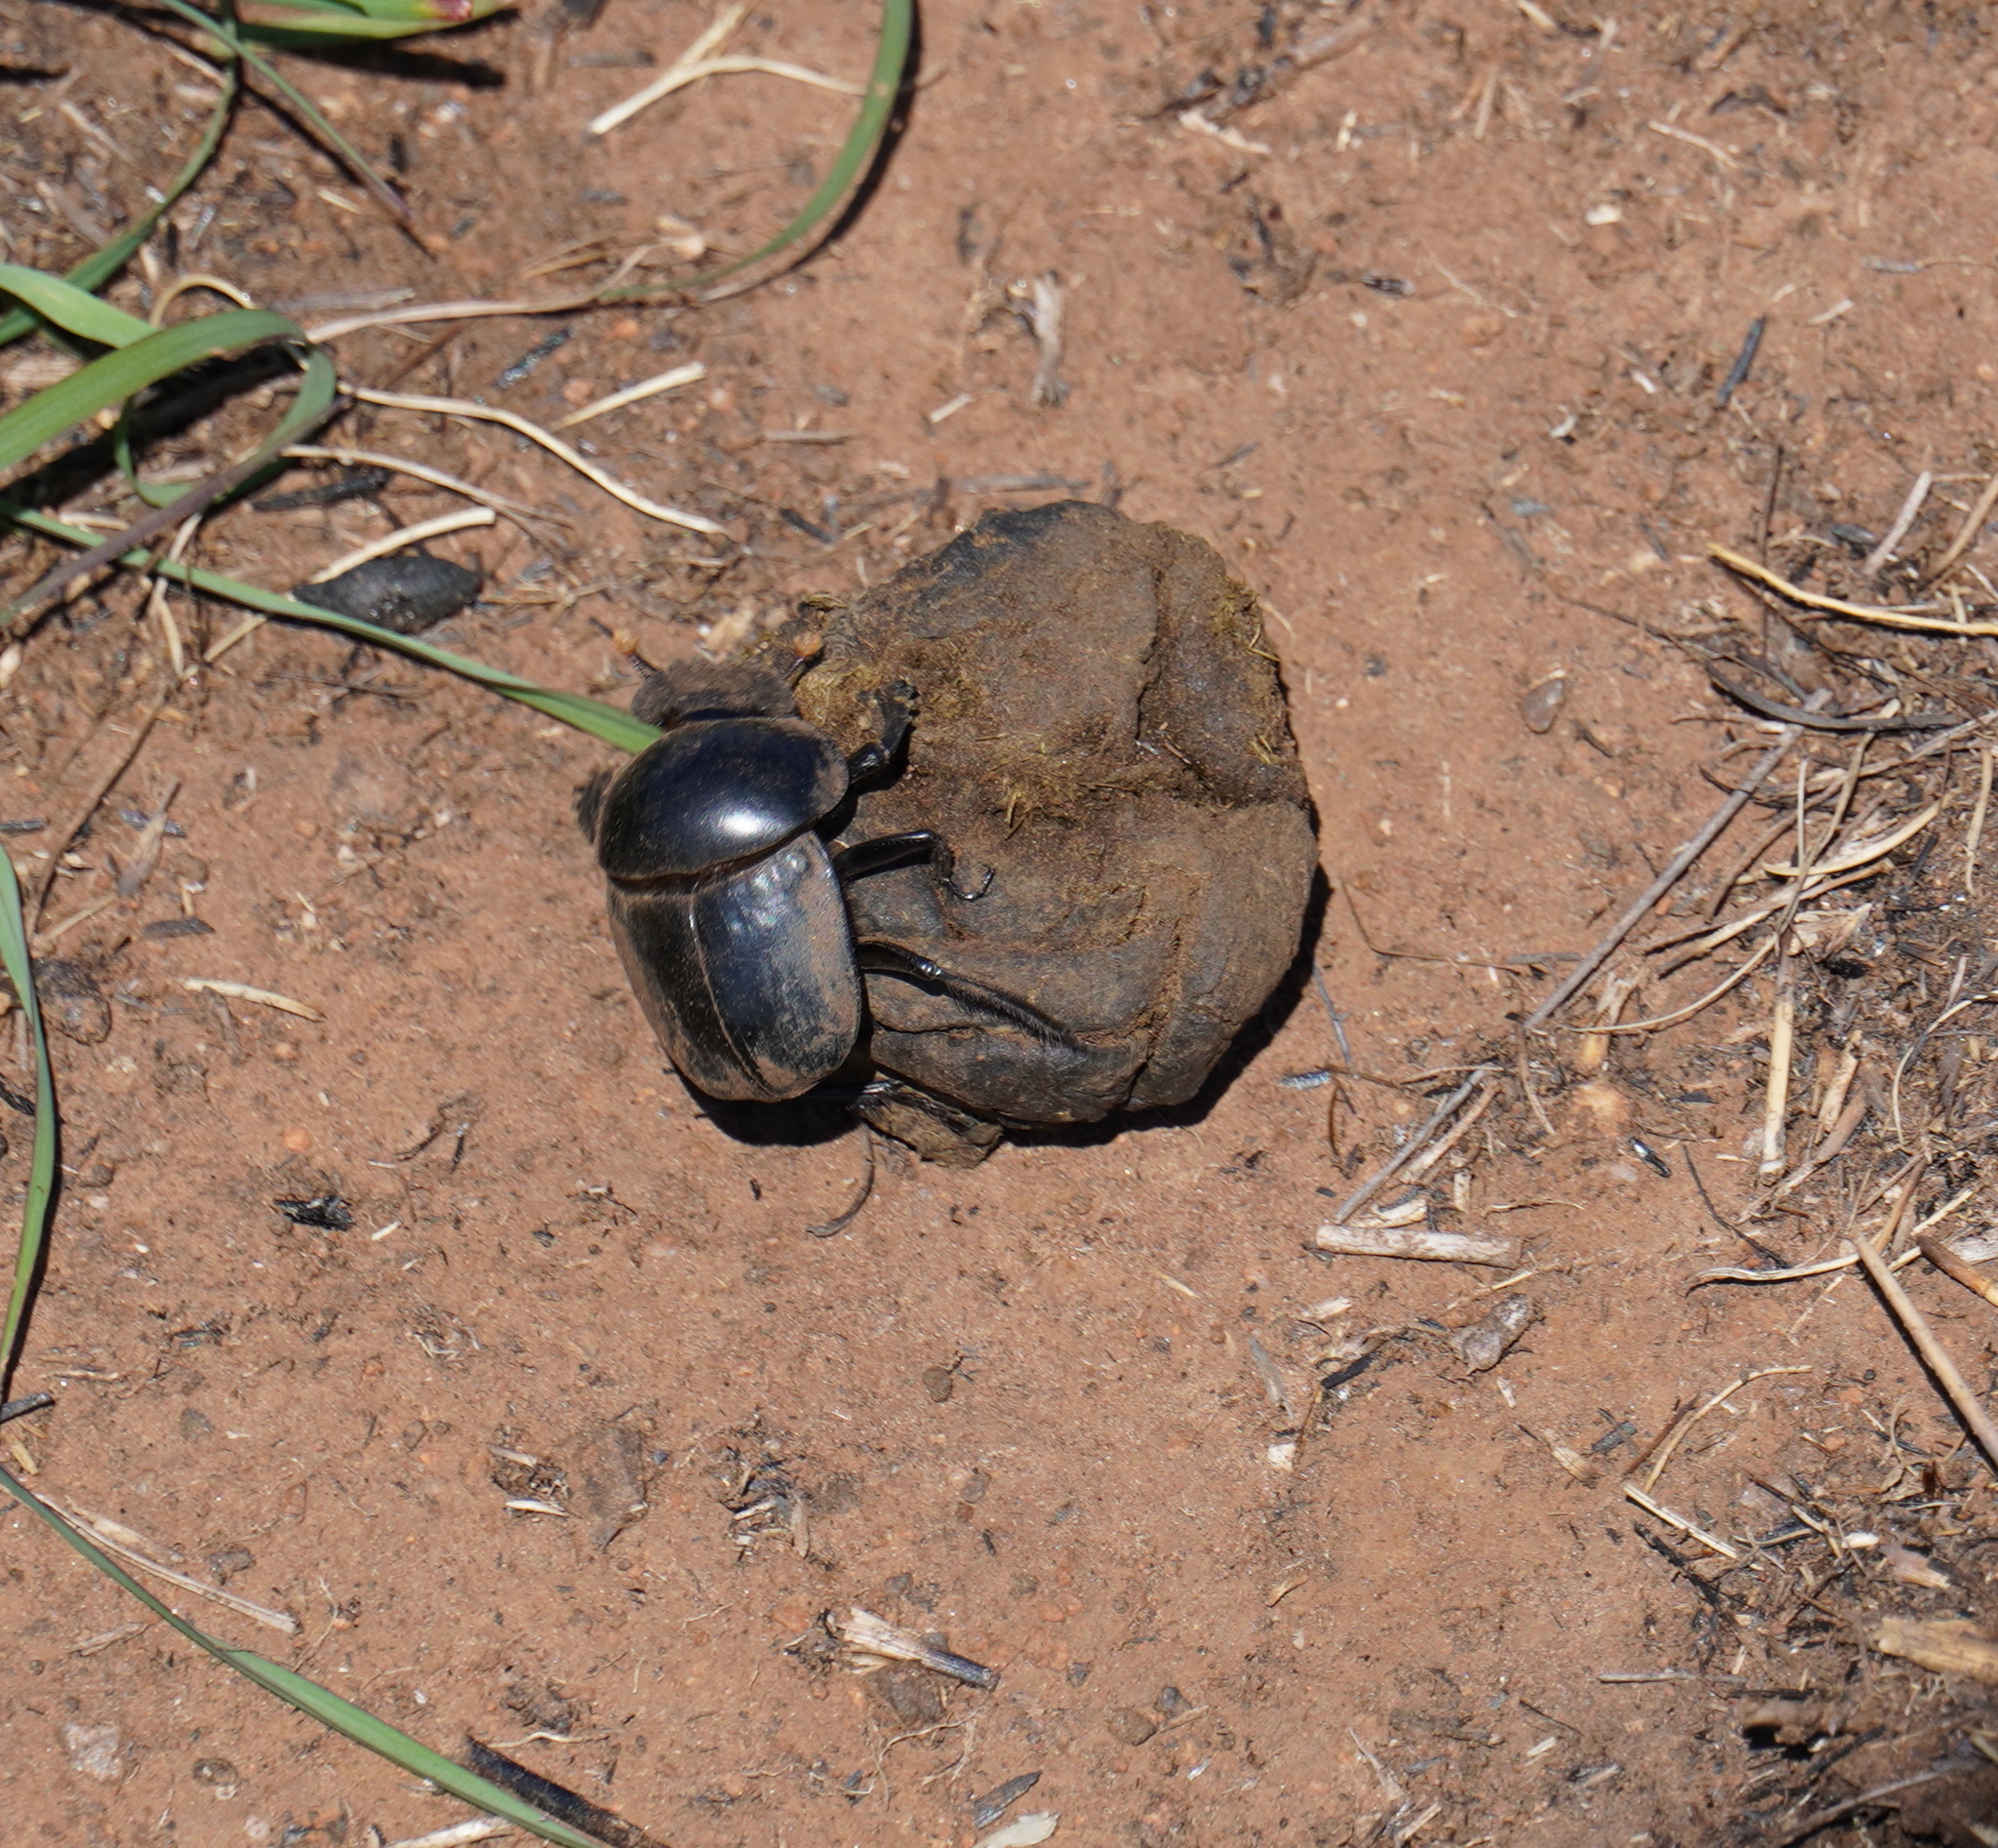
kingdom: Animalia
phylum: Arthropoda
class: Insecta
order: Coleoptera
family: Scarabaeidae
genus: Scarabaeus
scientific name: Scarabaeus rusticus
